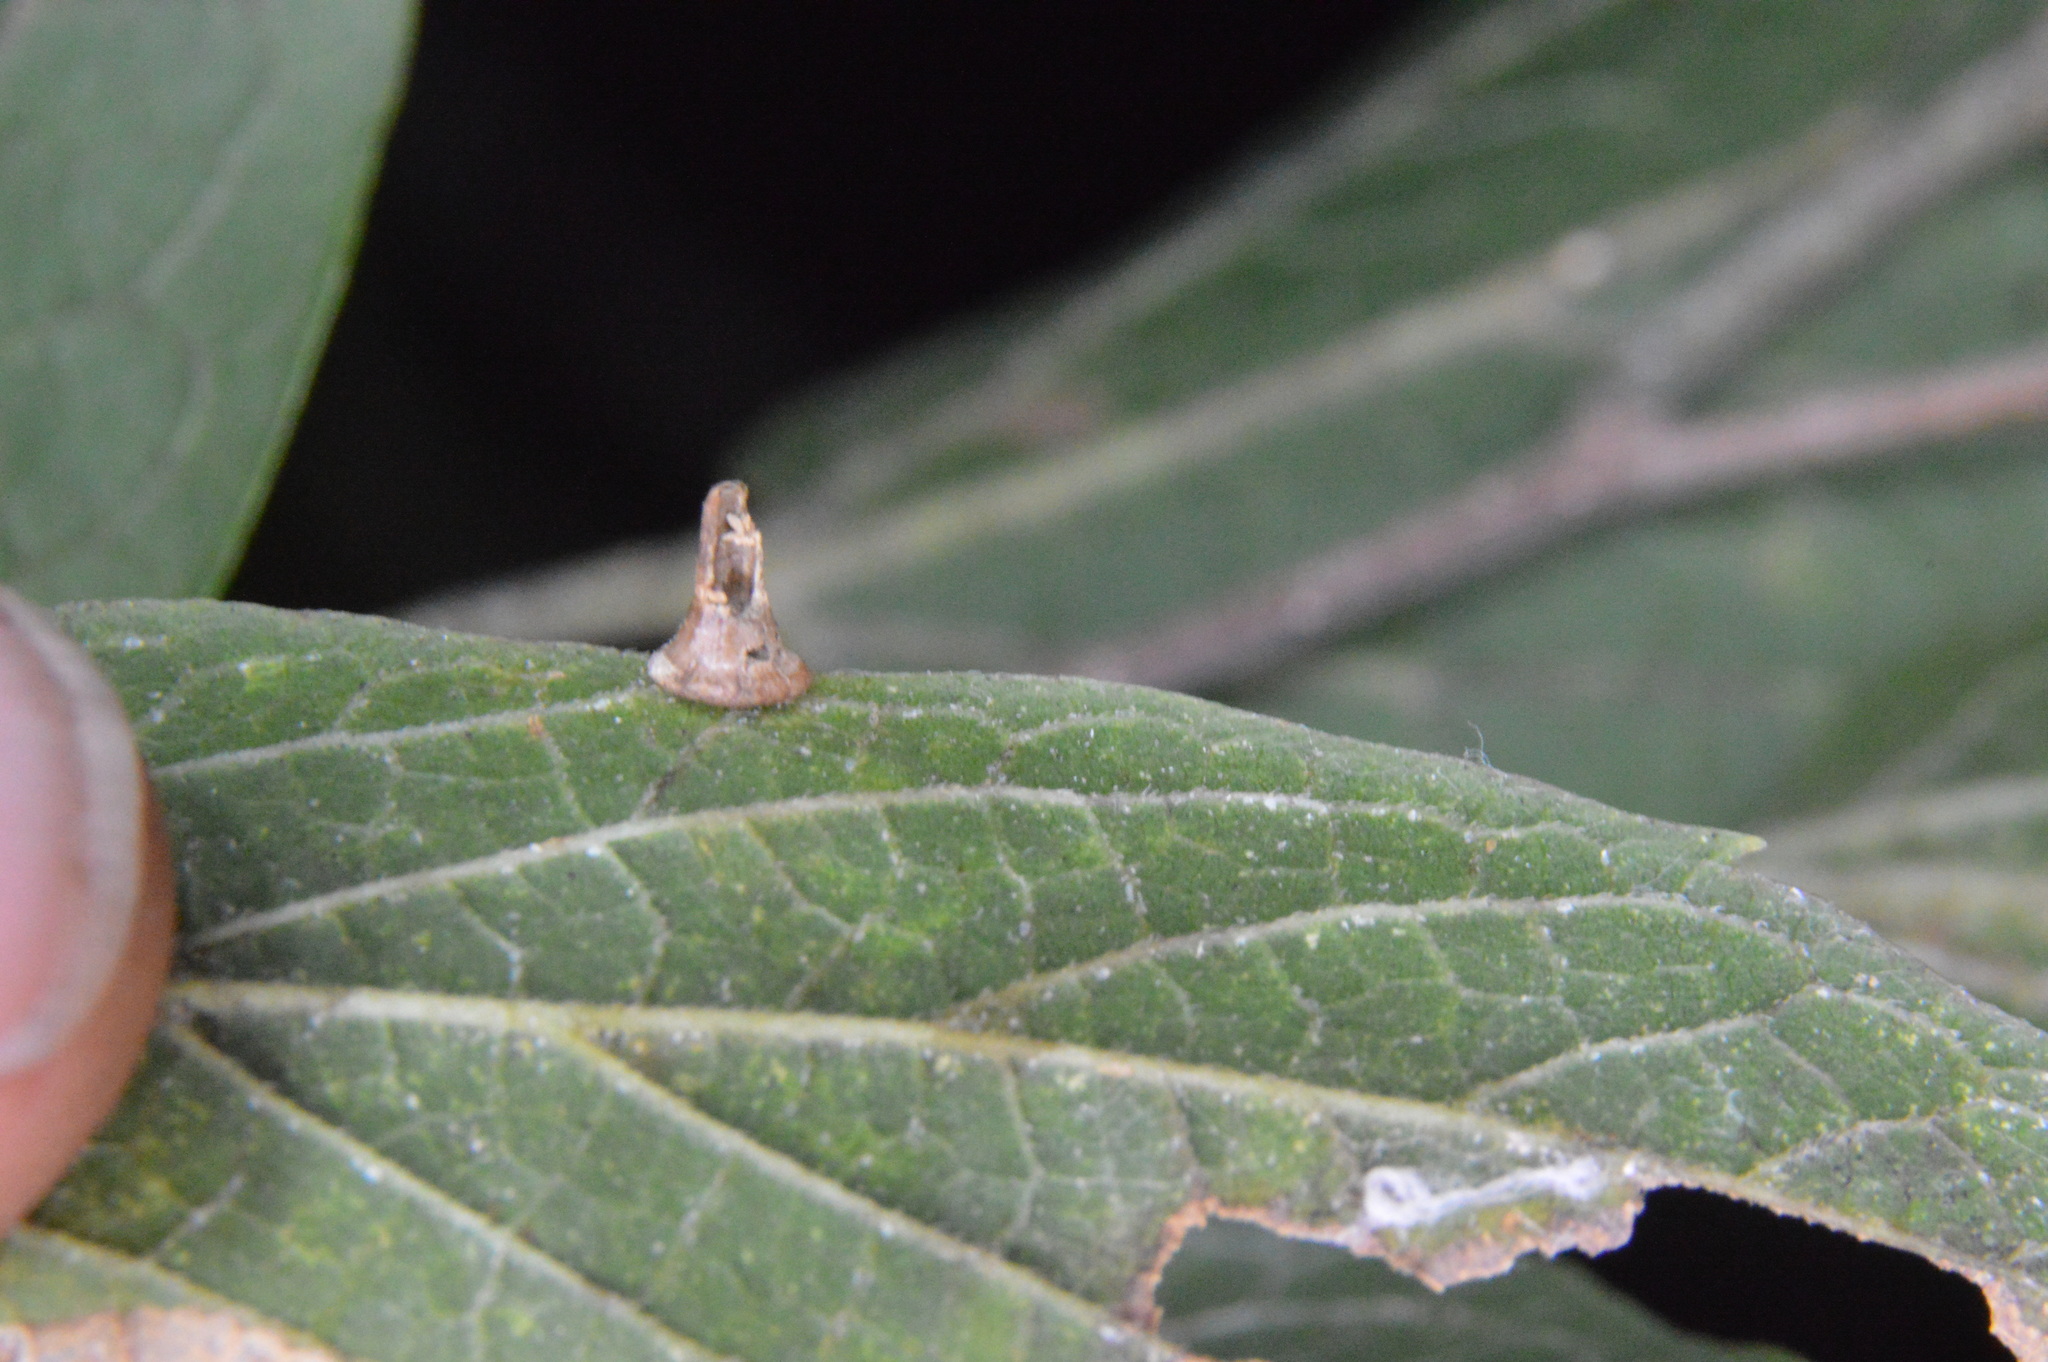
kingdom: Animalia
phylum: Arthropoda
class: Insecta
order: Diptera
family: Cecidomyiidae
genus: Celticecis
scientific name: Celticecis aciculata
